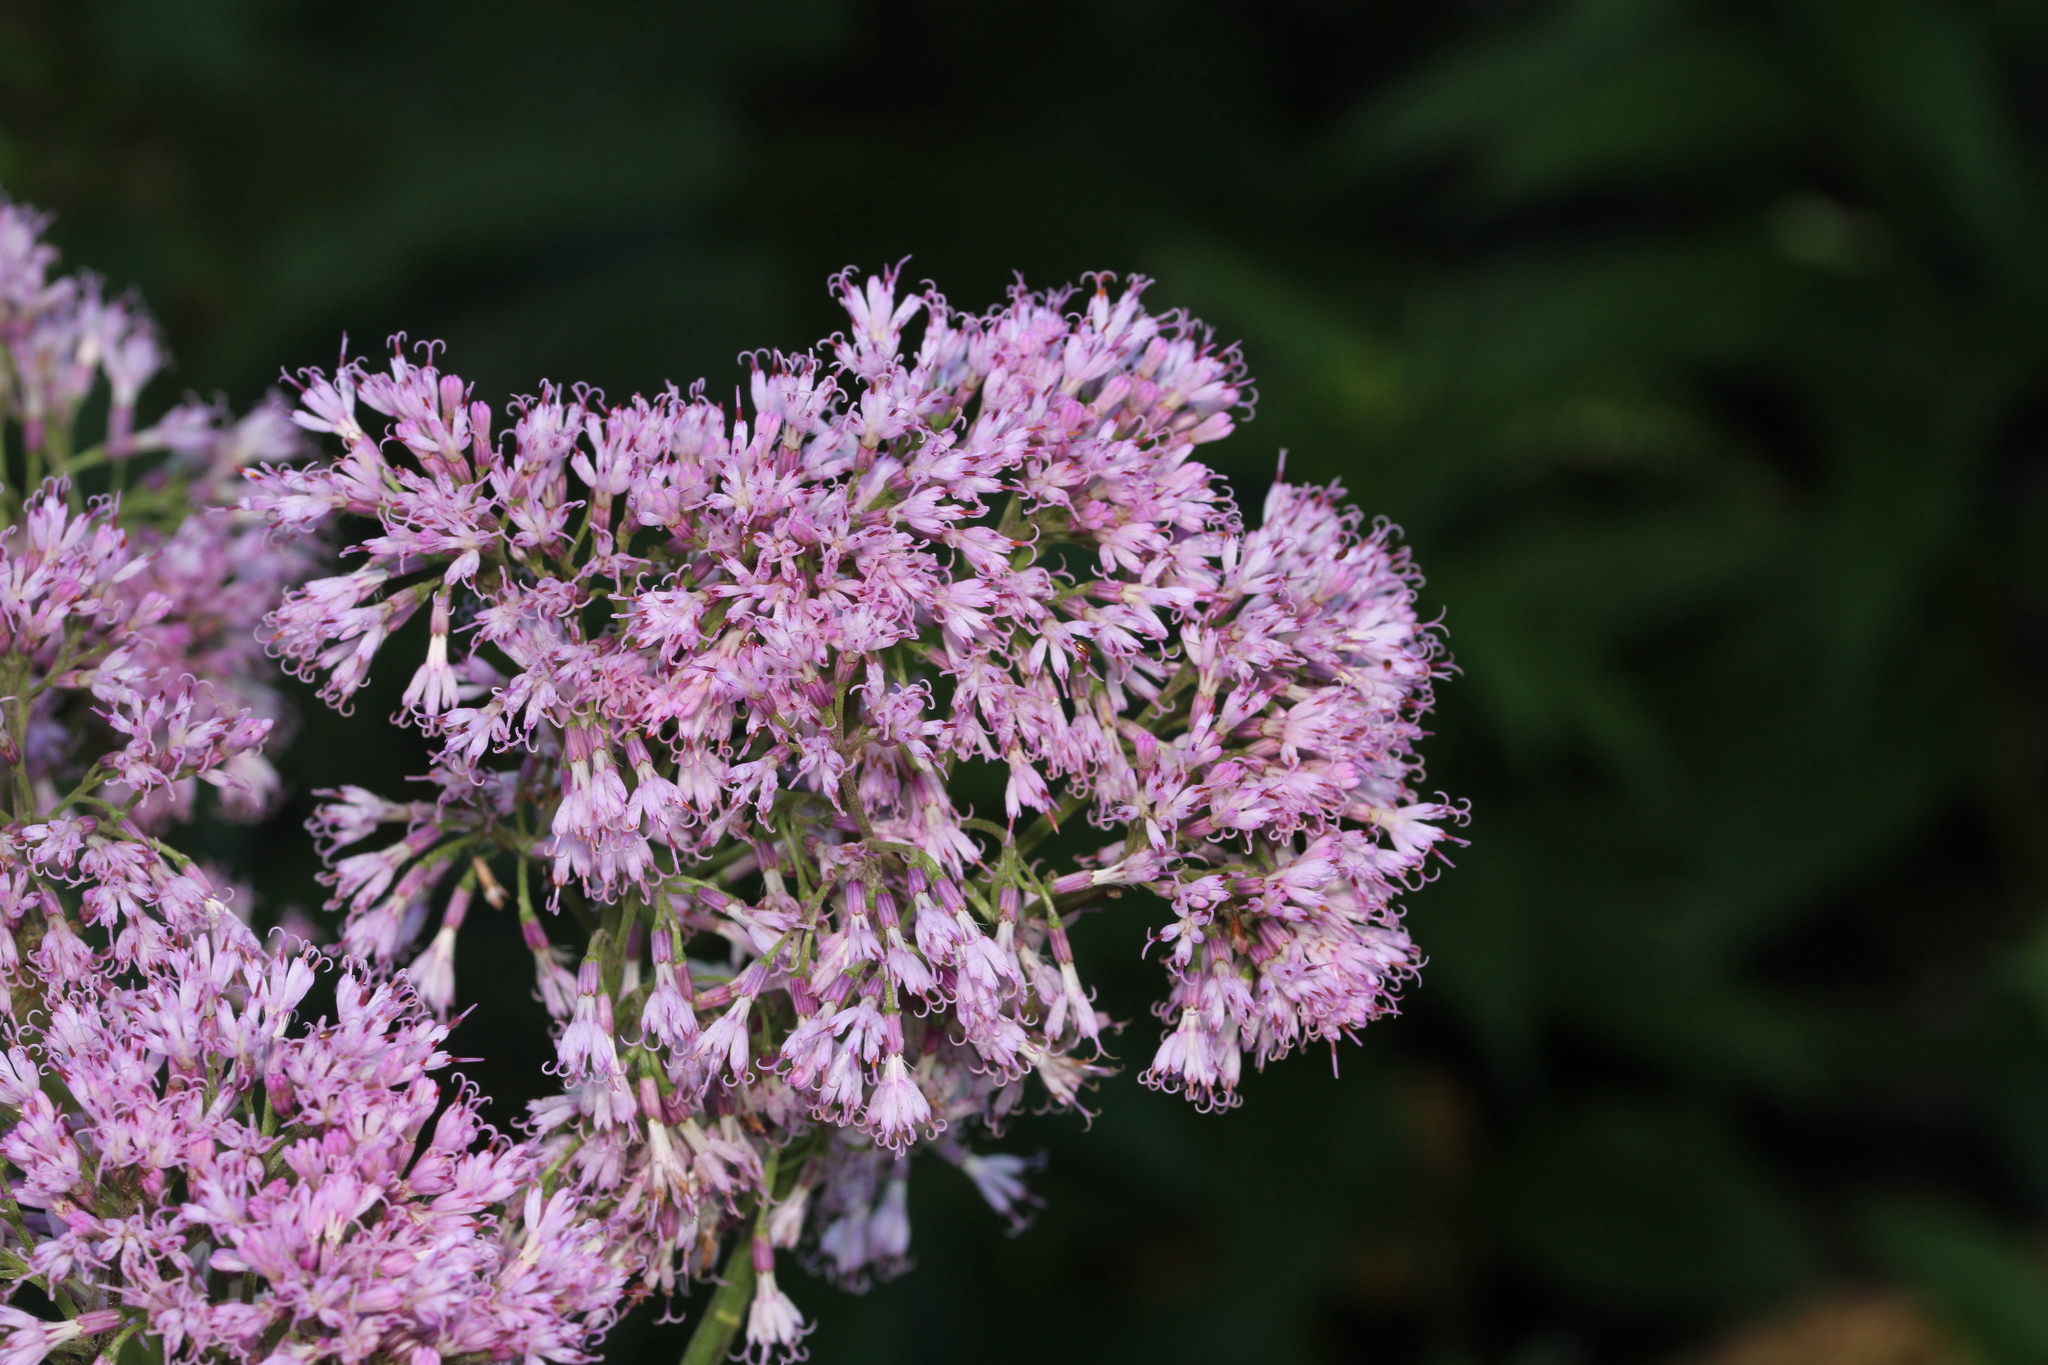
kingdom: Plantae
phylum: Tracheophyta
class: Magnoliopsida
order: Asterales
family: Asteraceae
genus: Adenostyles
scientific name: Adenostyles alliariae
